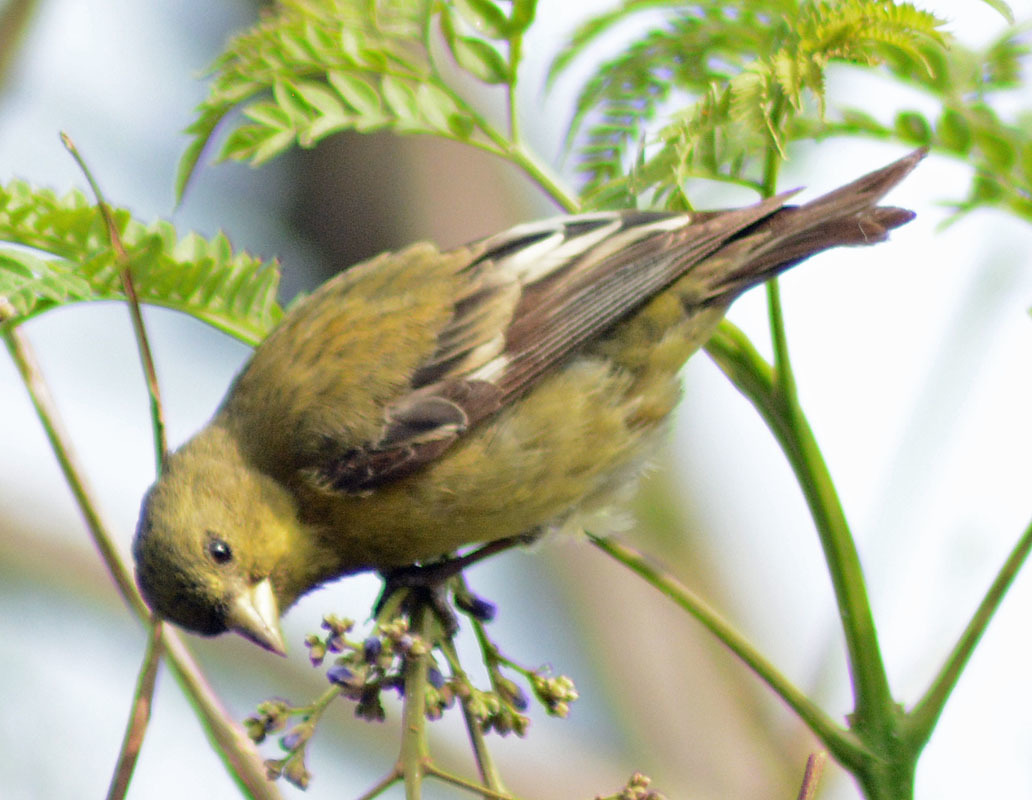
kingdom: Animalia
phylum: Chordata
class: Aves
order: Passeriformes
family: Fringillidae
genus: Spinus
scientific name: Spinus psaltria
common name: Lesser goldfinch
